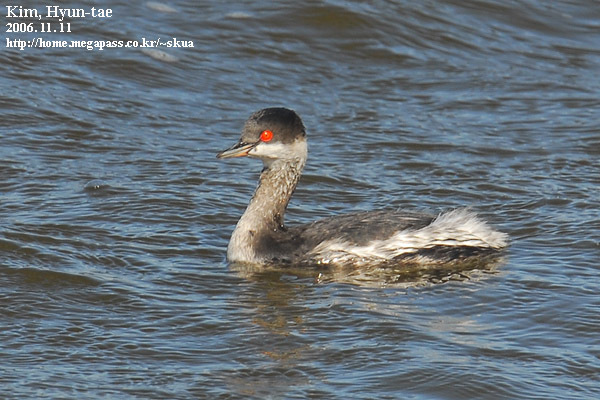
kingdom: Animalia
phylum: Chordata
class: Aves
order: Podicipediformes
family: Podicipedidae
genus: Podiceps
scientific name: Podiceps nigricollis
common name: Black-necked grebe
